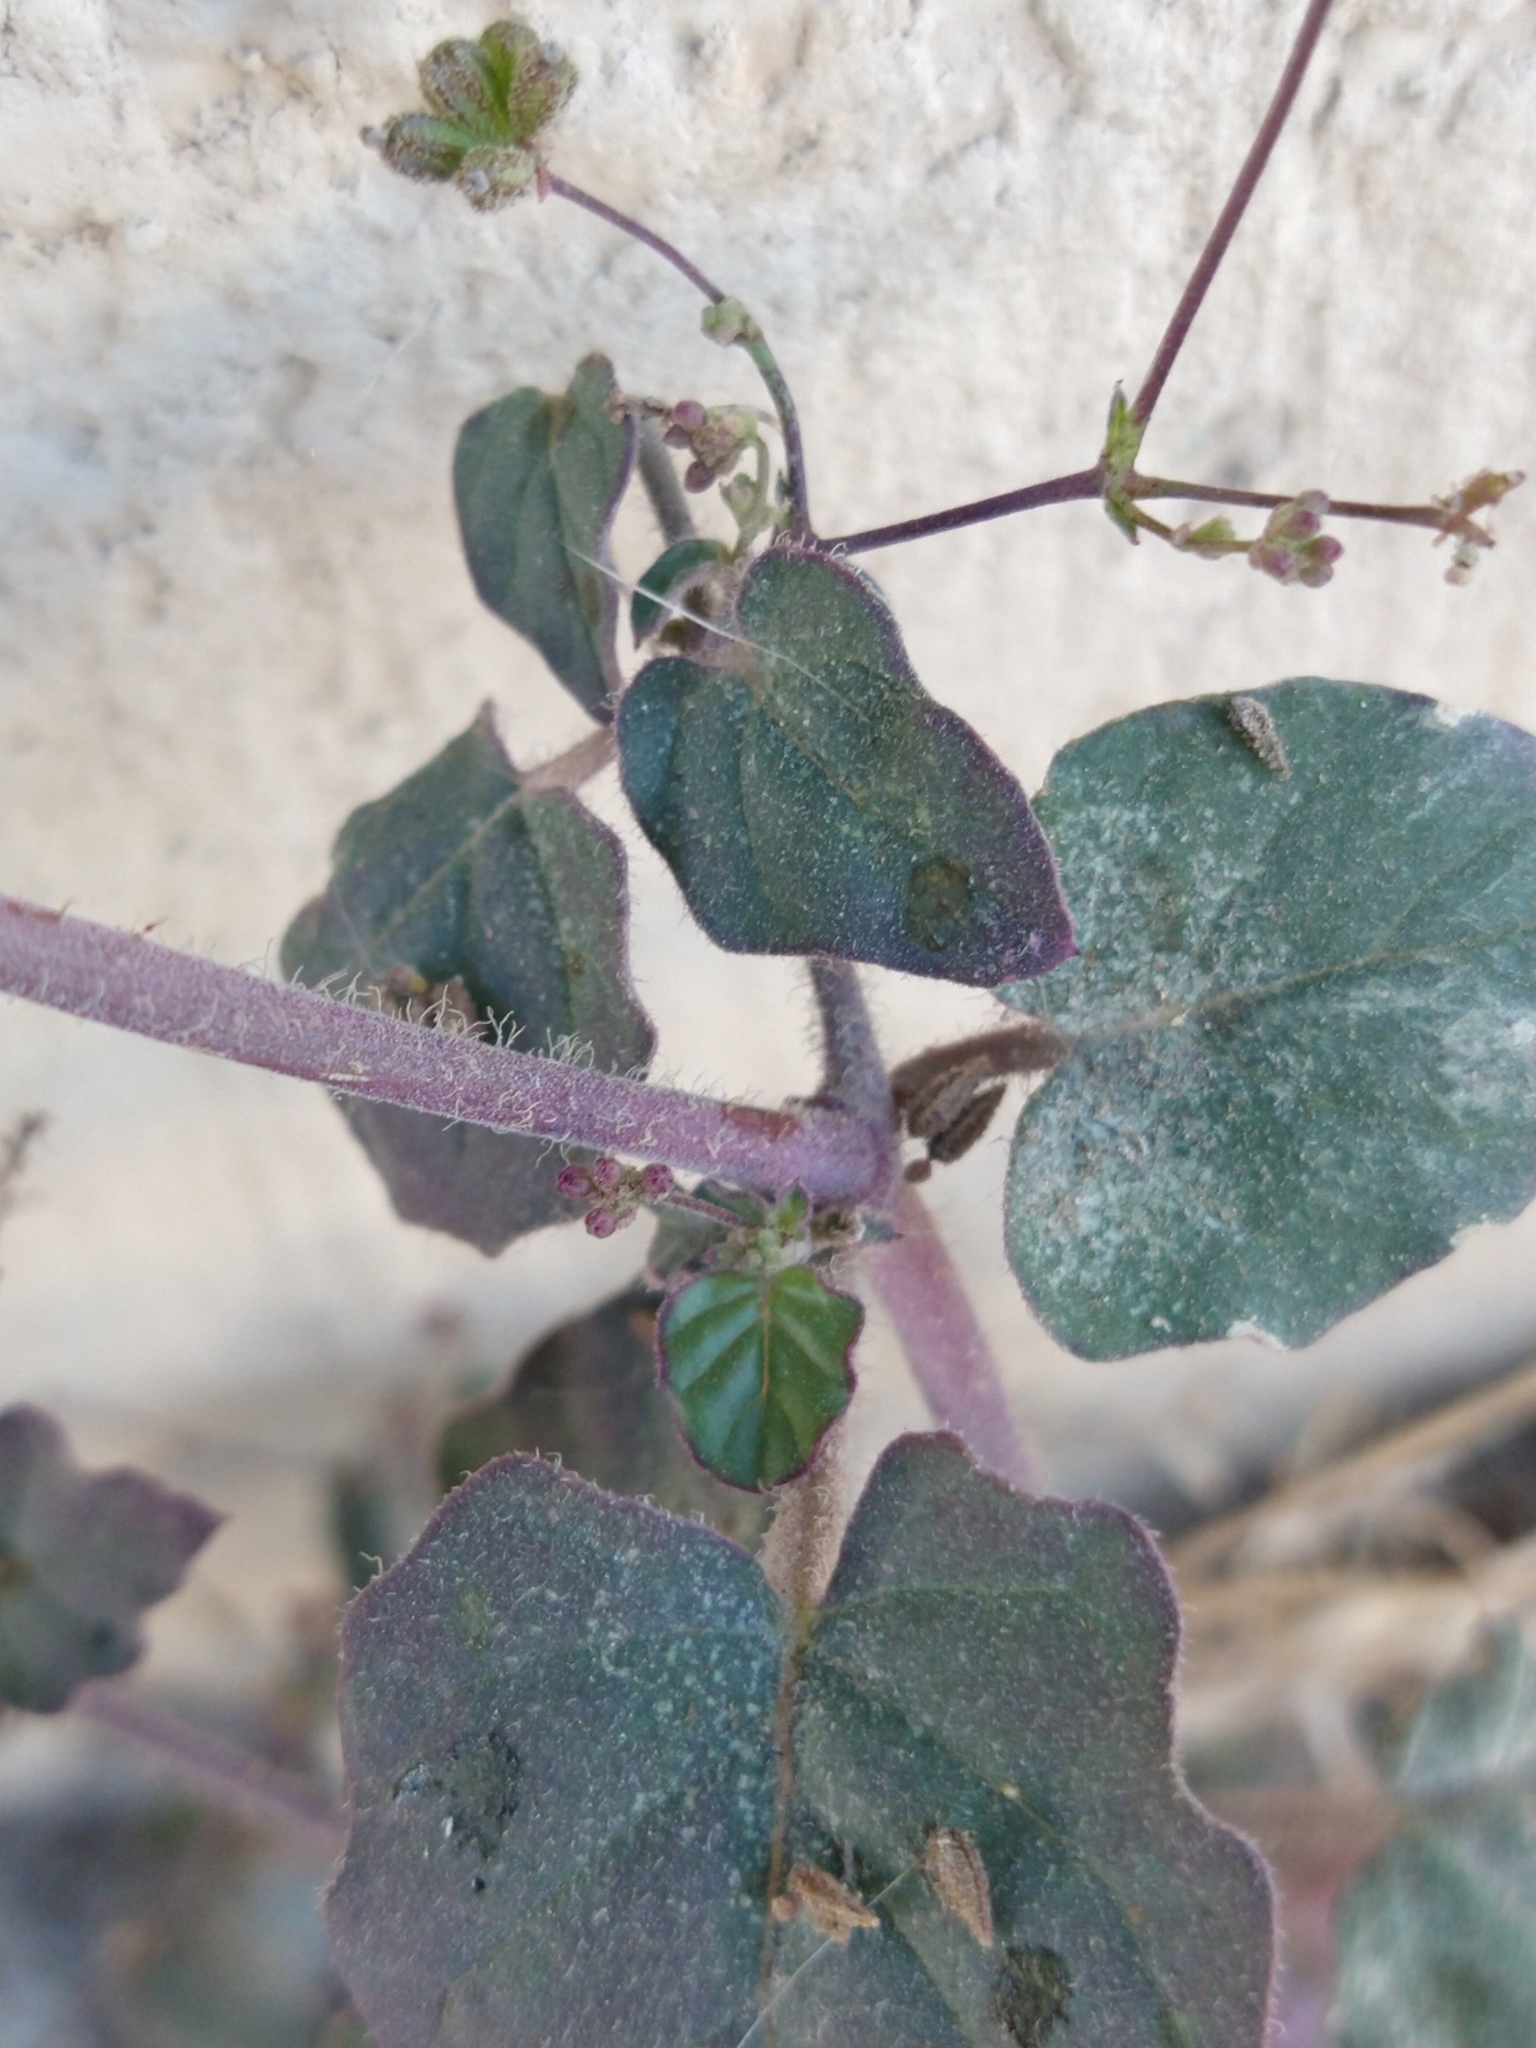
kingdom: Plantae
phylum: Tracheophyta
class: Magnoliopsida
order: Caryophyllales
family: Nyctaginaceae
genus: Boerhavia
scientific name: Boerhavia coccinea
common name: Scarlet spiderling
